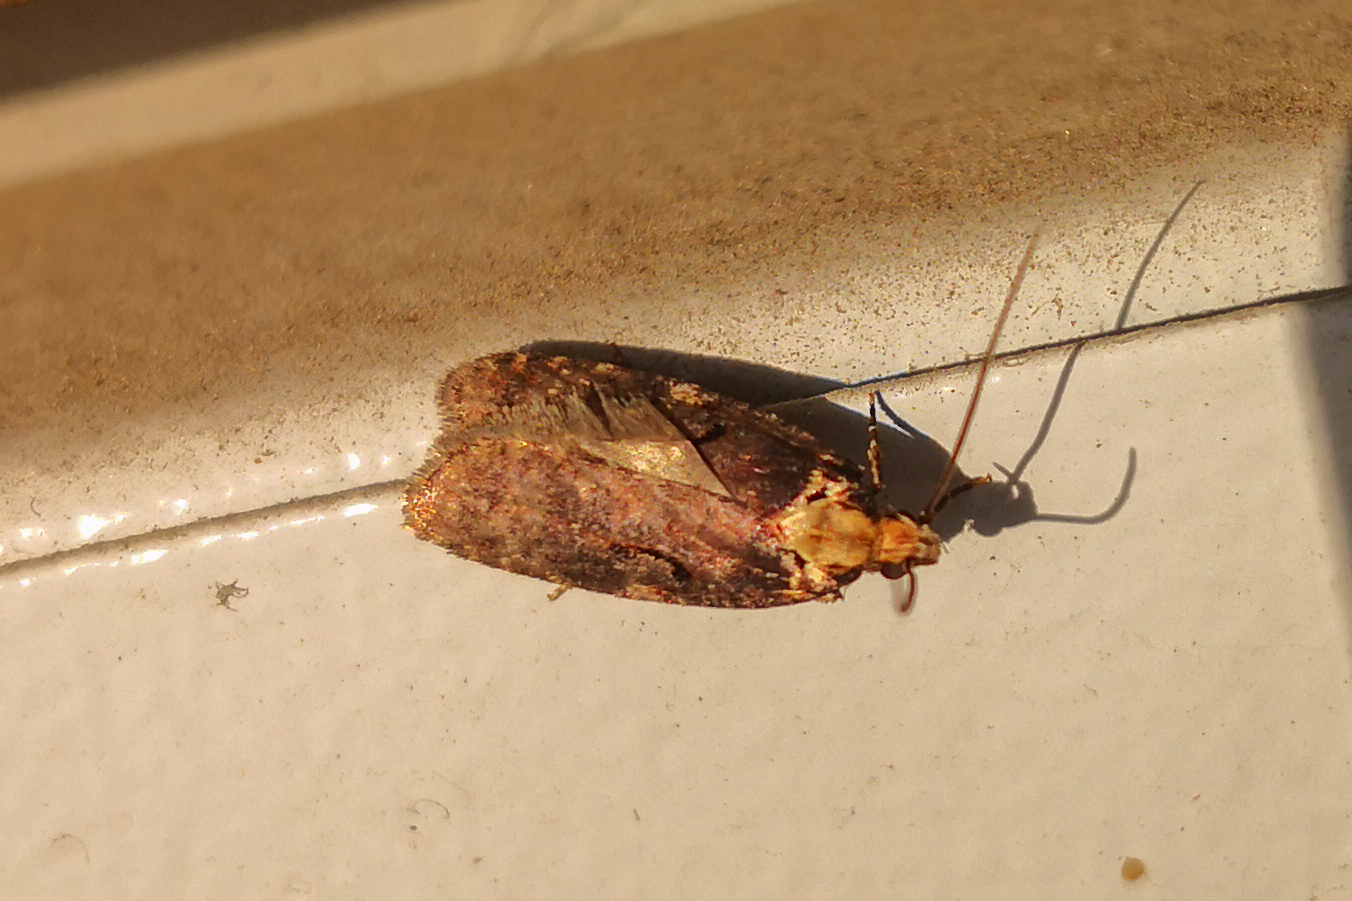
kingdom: Animalia
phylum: Arthropoda
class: Insecta
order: Lepidoptera
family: Depressariidae
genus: Agonopterix
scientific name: Agonopterix liturosa
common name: Large purple flat-body
